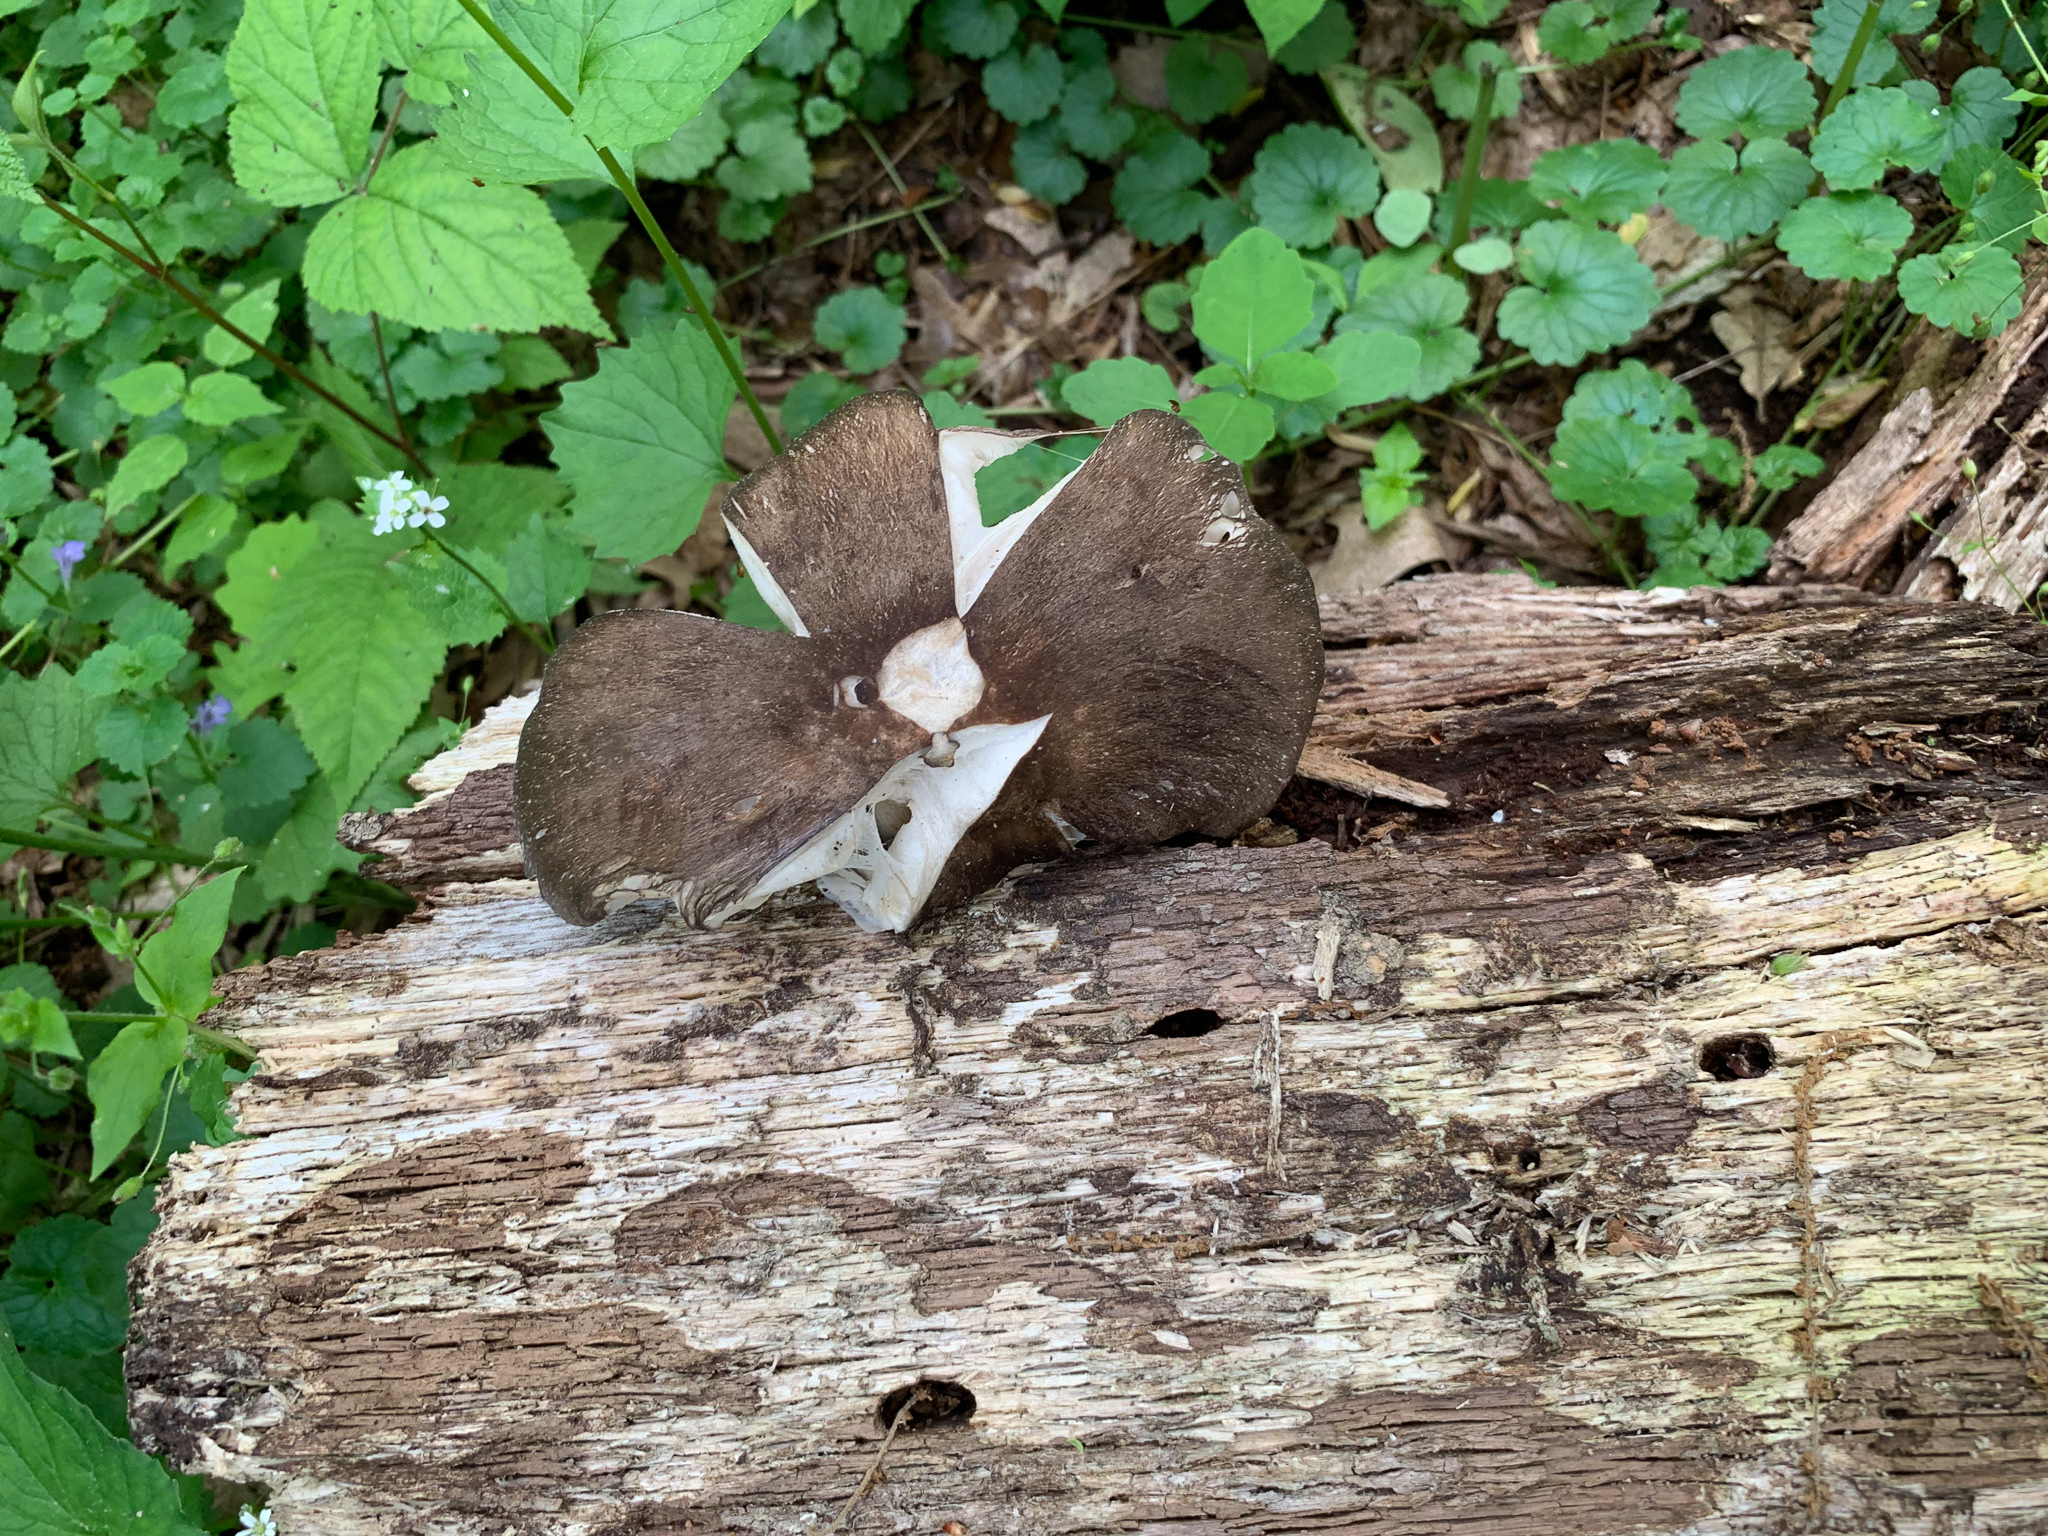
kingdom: Fungi
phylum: Basidiomycota
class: Agaricomycetes
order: Agaricales
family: Tricholomataceae
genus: Megacollybia
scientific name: Megacollybia rodmanii
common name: Eastern american platterful mushroom
